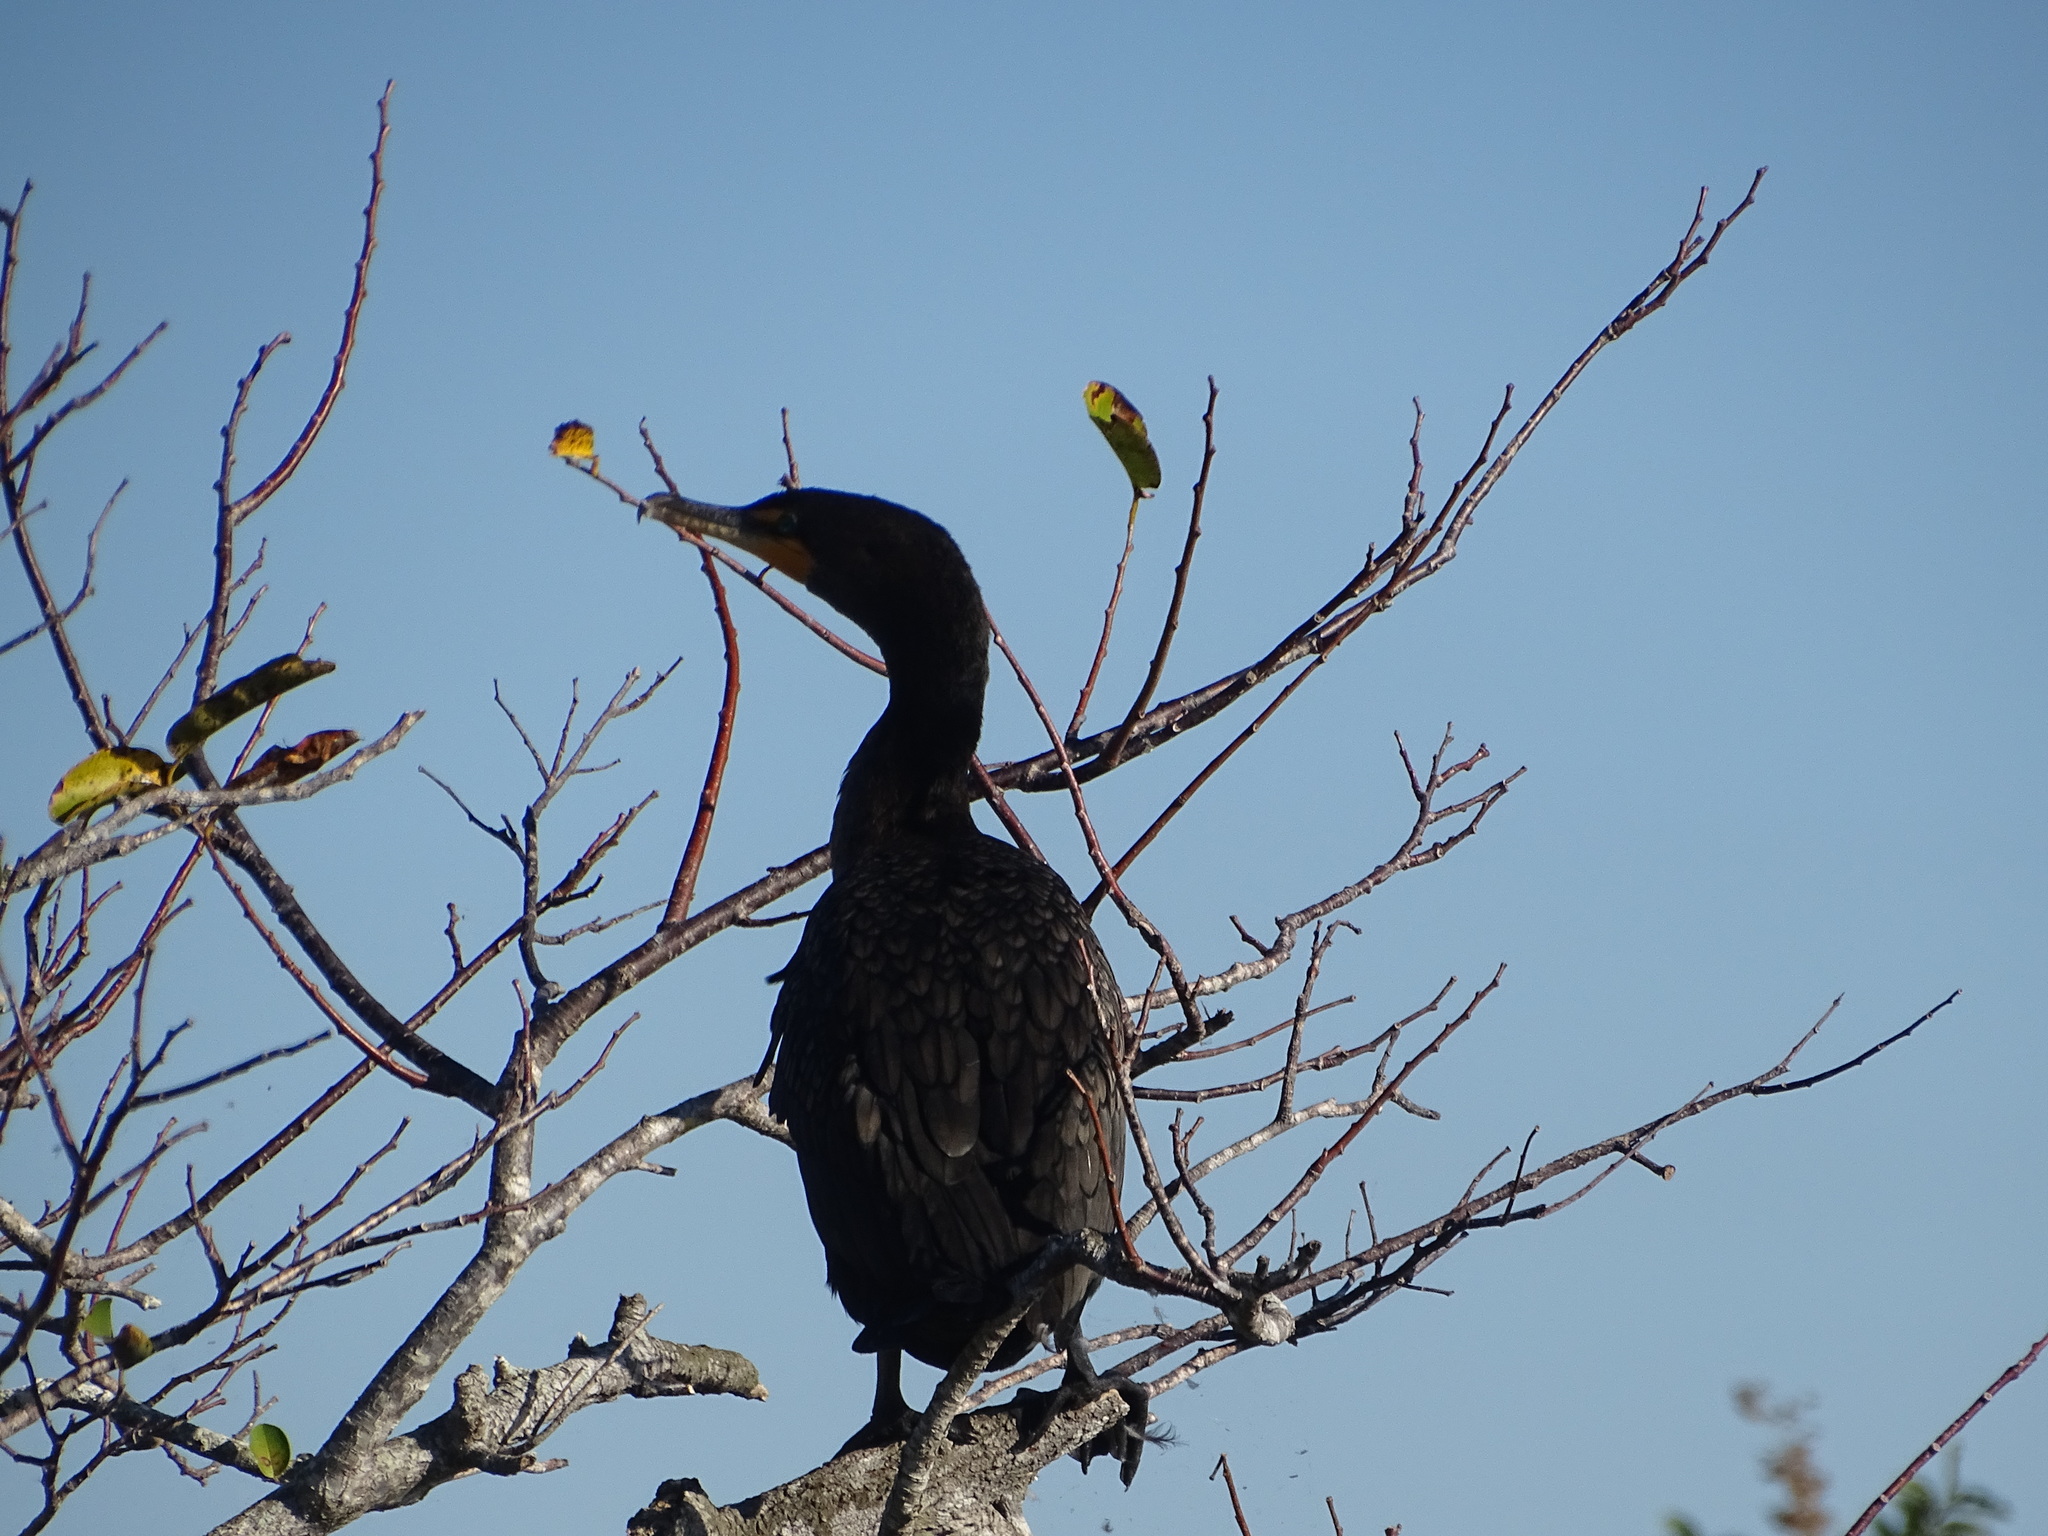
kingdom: Animalia
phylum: Chordata
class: Aves
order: Suliformes
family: Phalacrocoracidae
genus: Phalacrocorax
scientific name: Phalacrocorax auritus
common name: Double-crested cormorant
